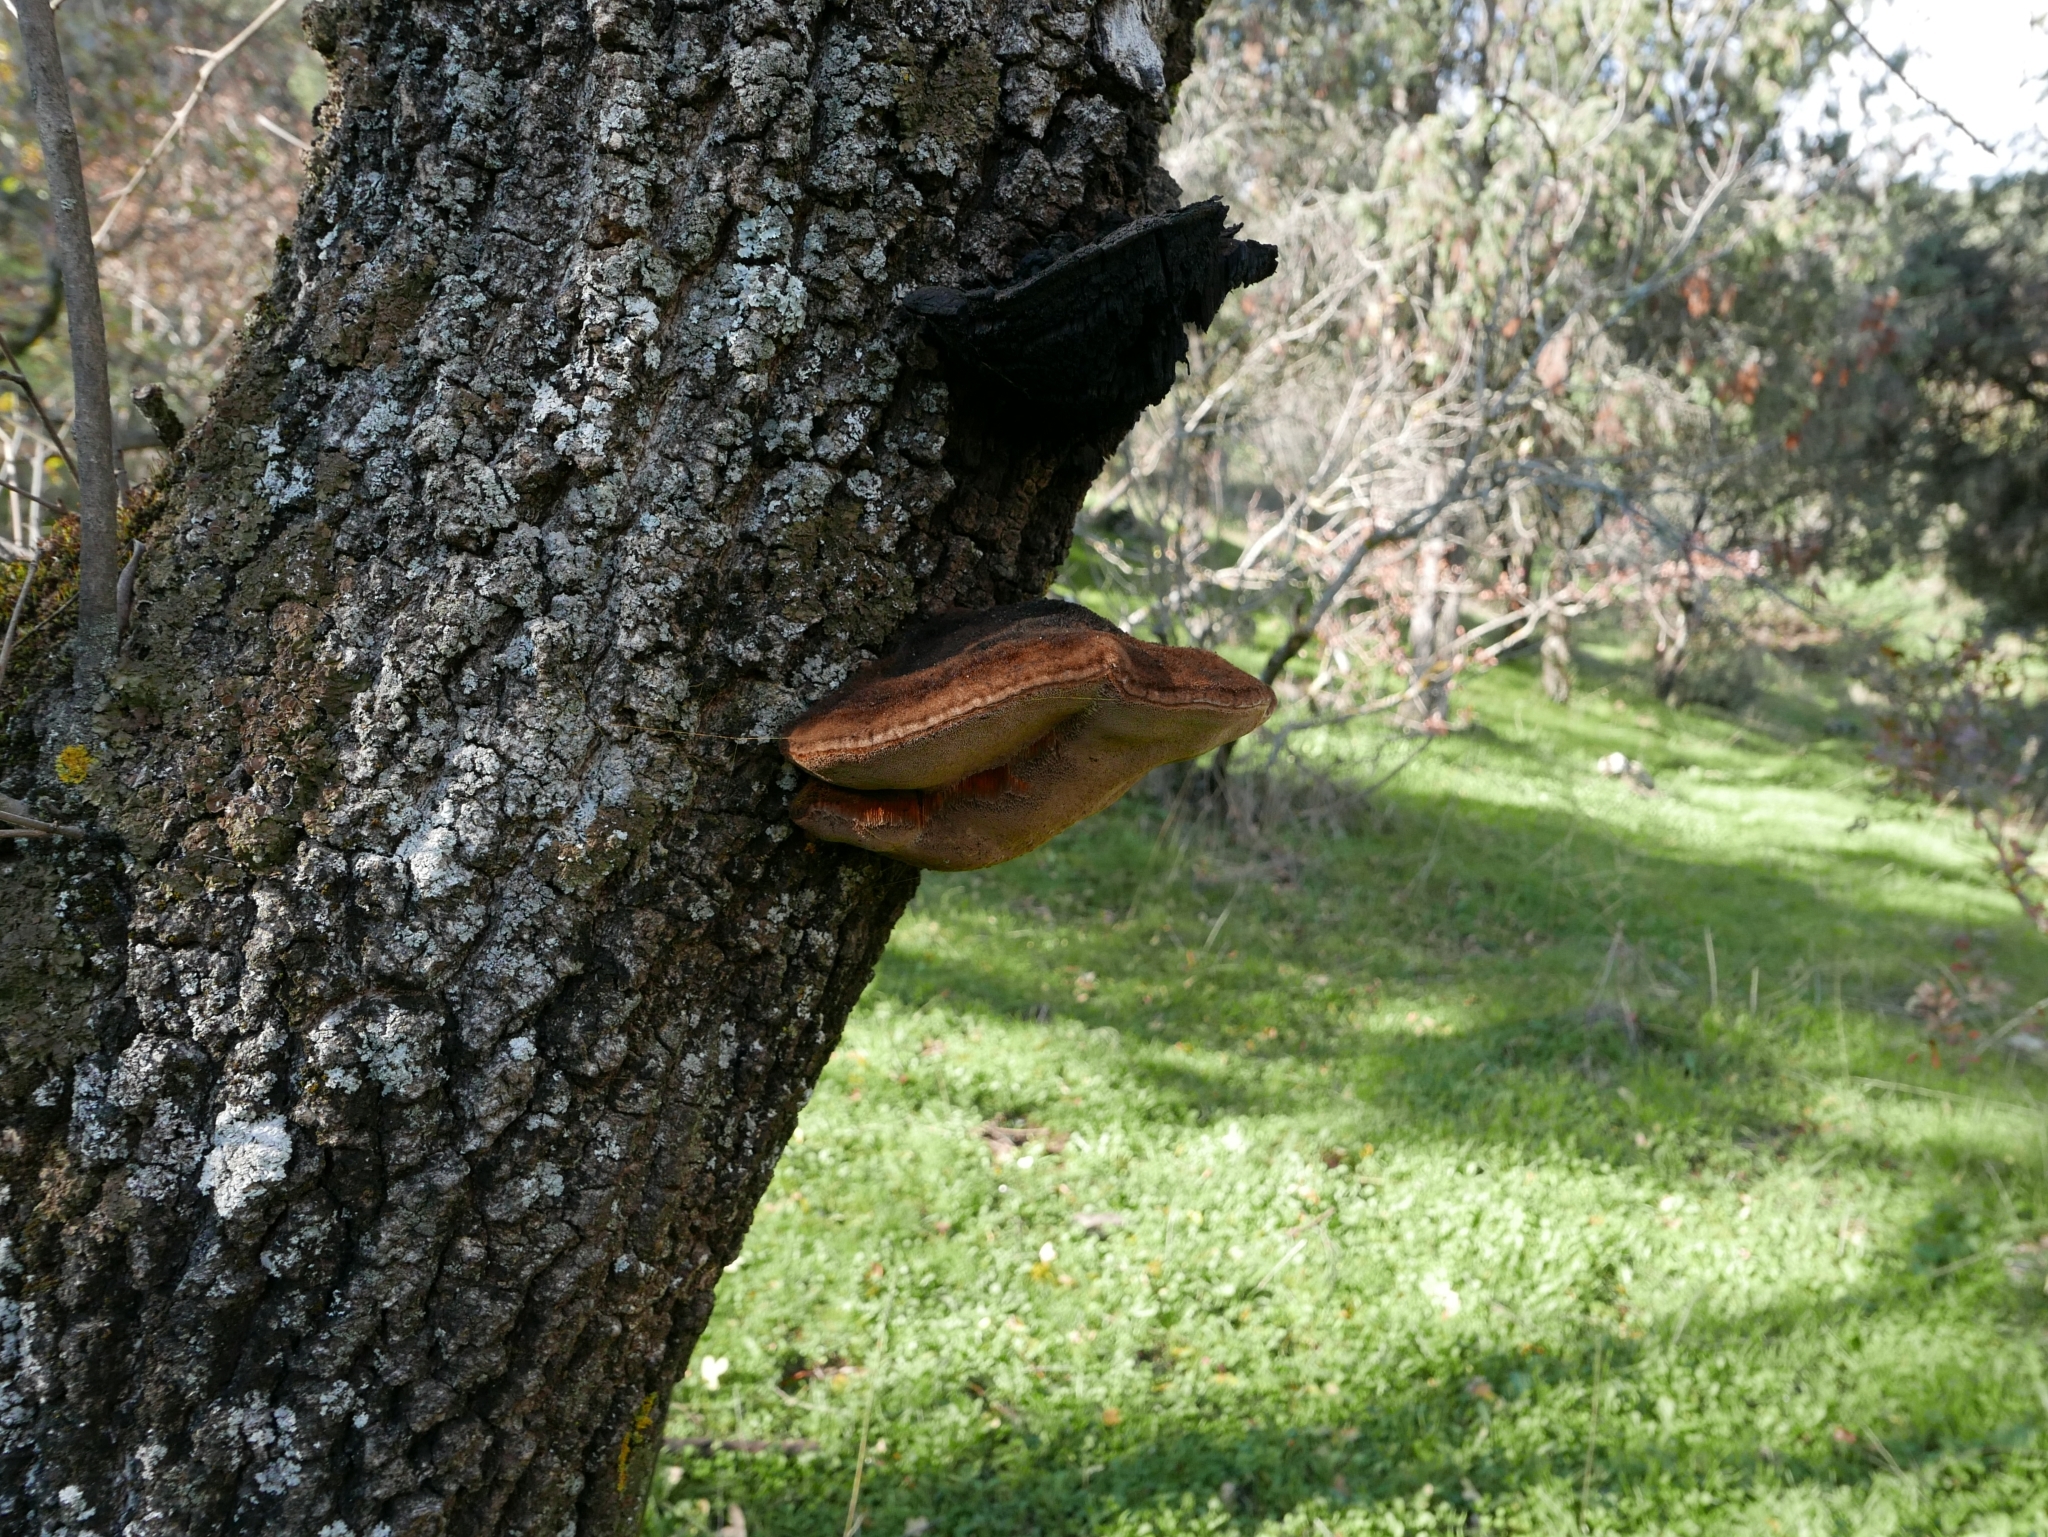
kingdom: Fungi
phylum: Basidiomycota
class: Agaricomycetes
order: Hymenochaetales
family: Hymenochaetaceae
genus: Inonotus
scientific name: Inonotus hispidus
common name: Shaggy bracket
